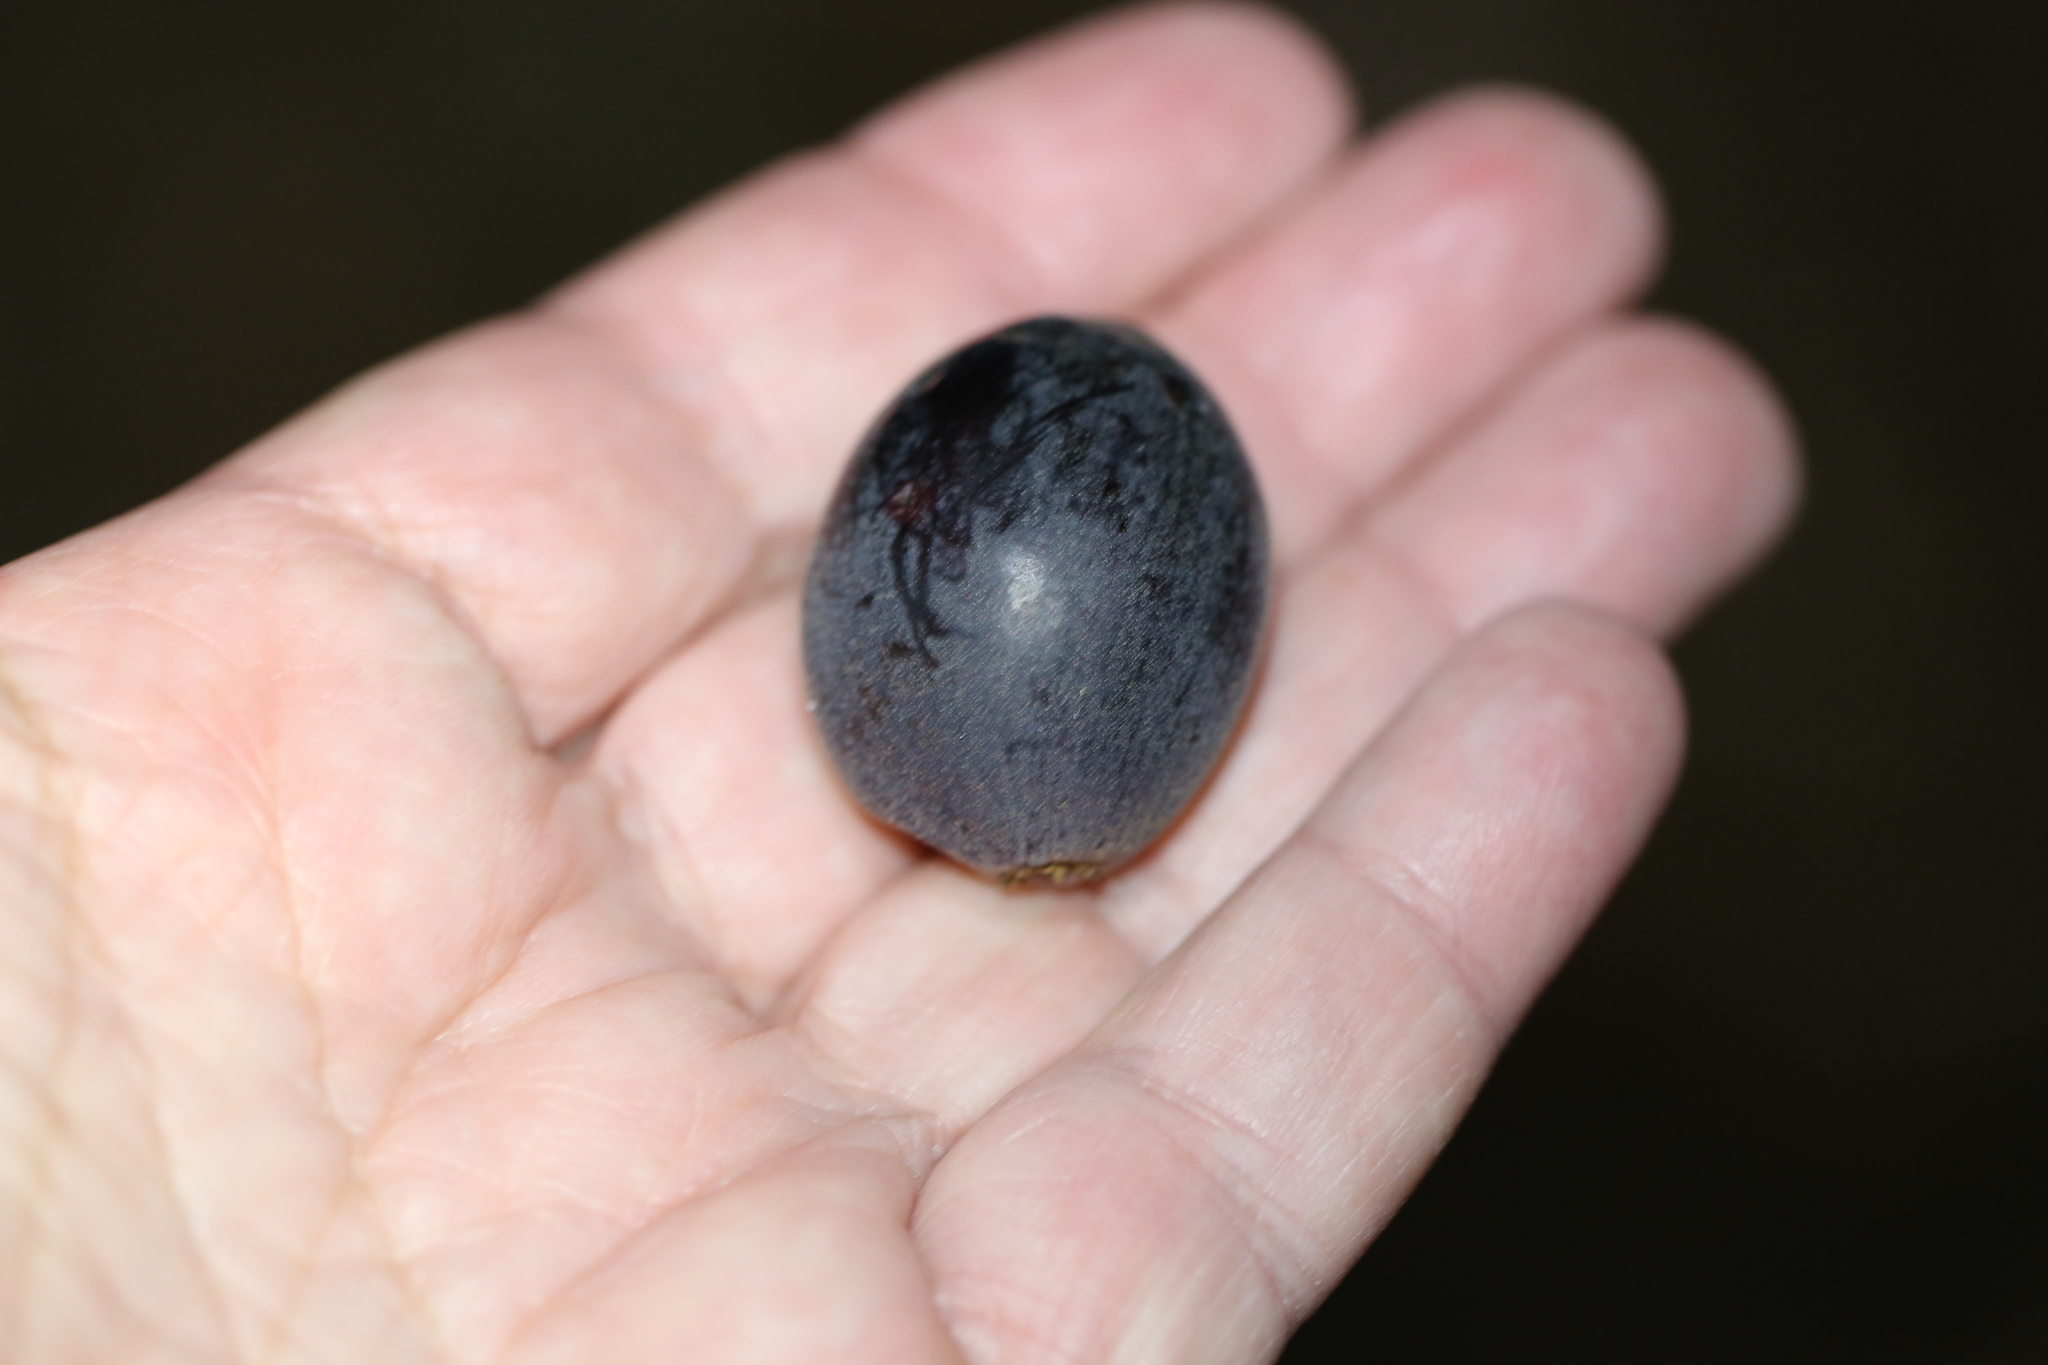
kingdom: Plantae
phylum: Tracheophyta
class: Magnoliopsida
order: Ericales
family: Sapotaceae
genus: Niemeyera
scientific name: Niemeyera chartacea
